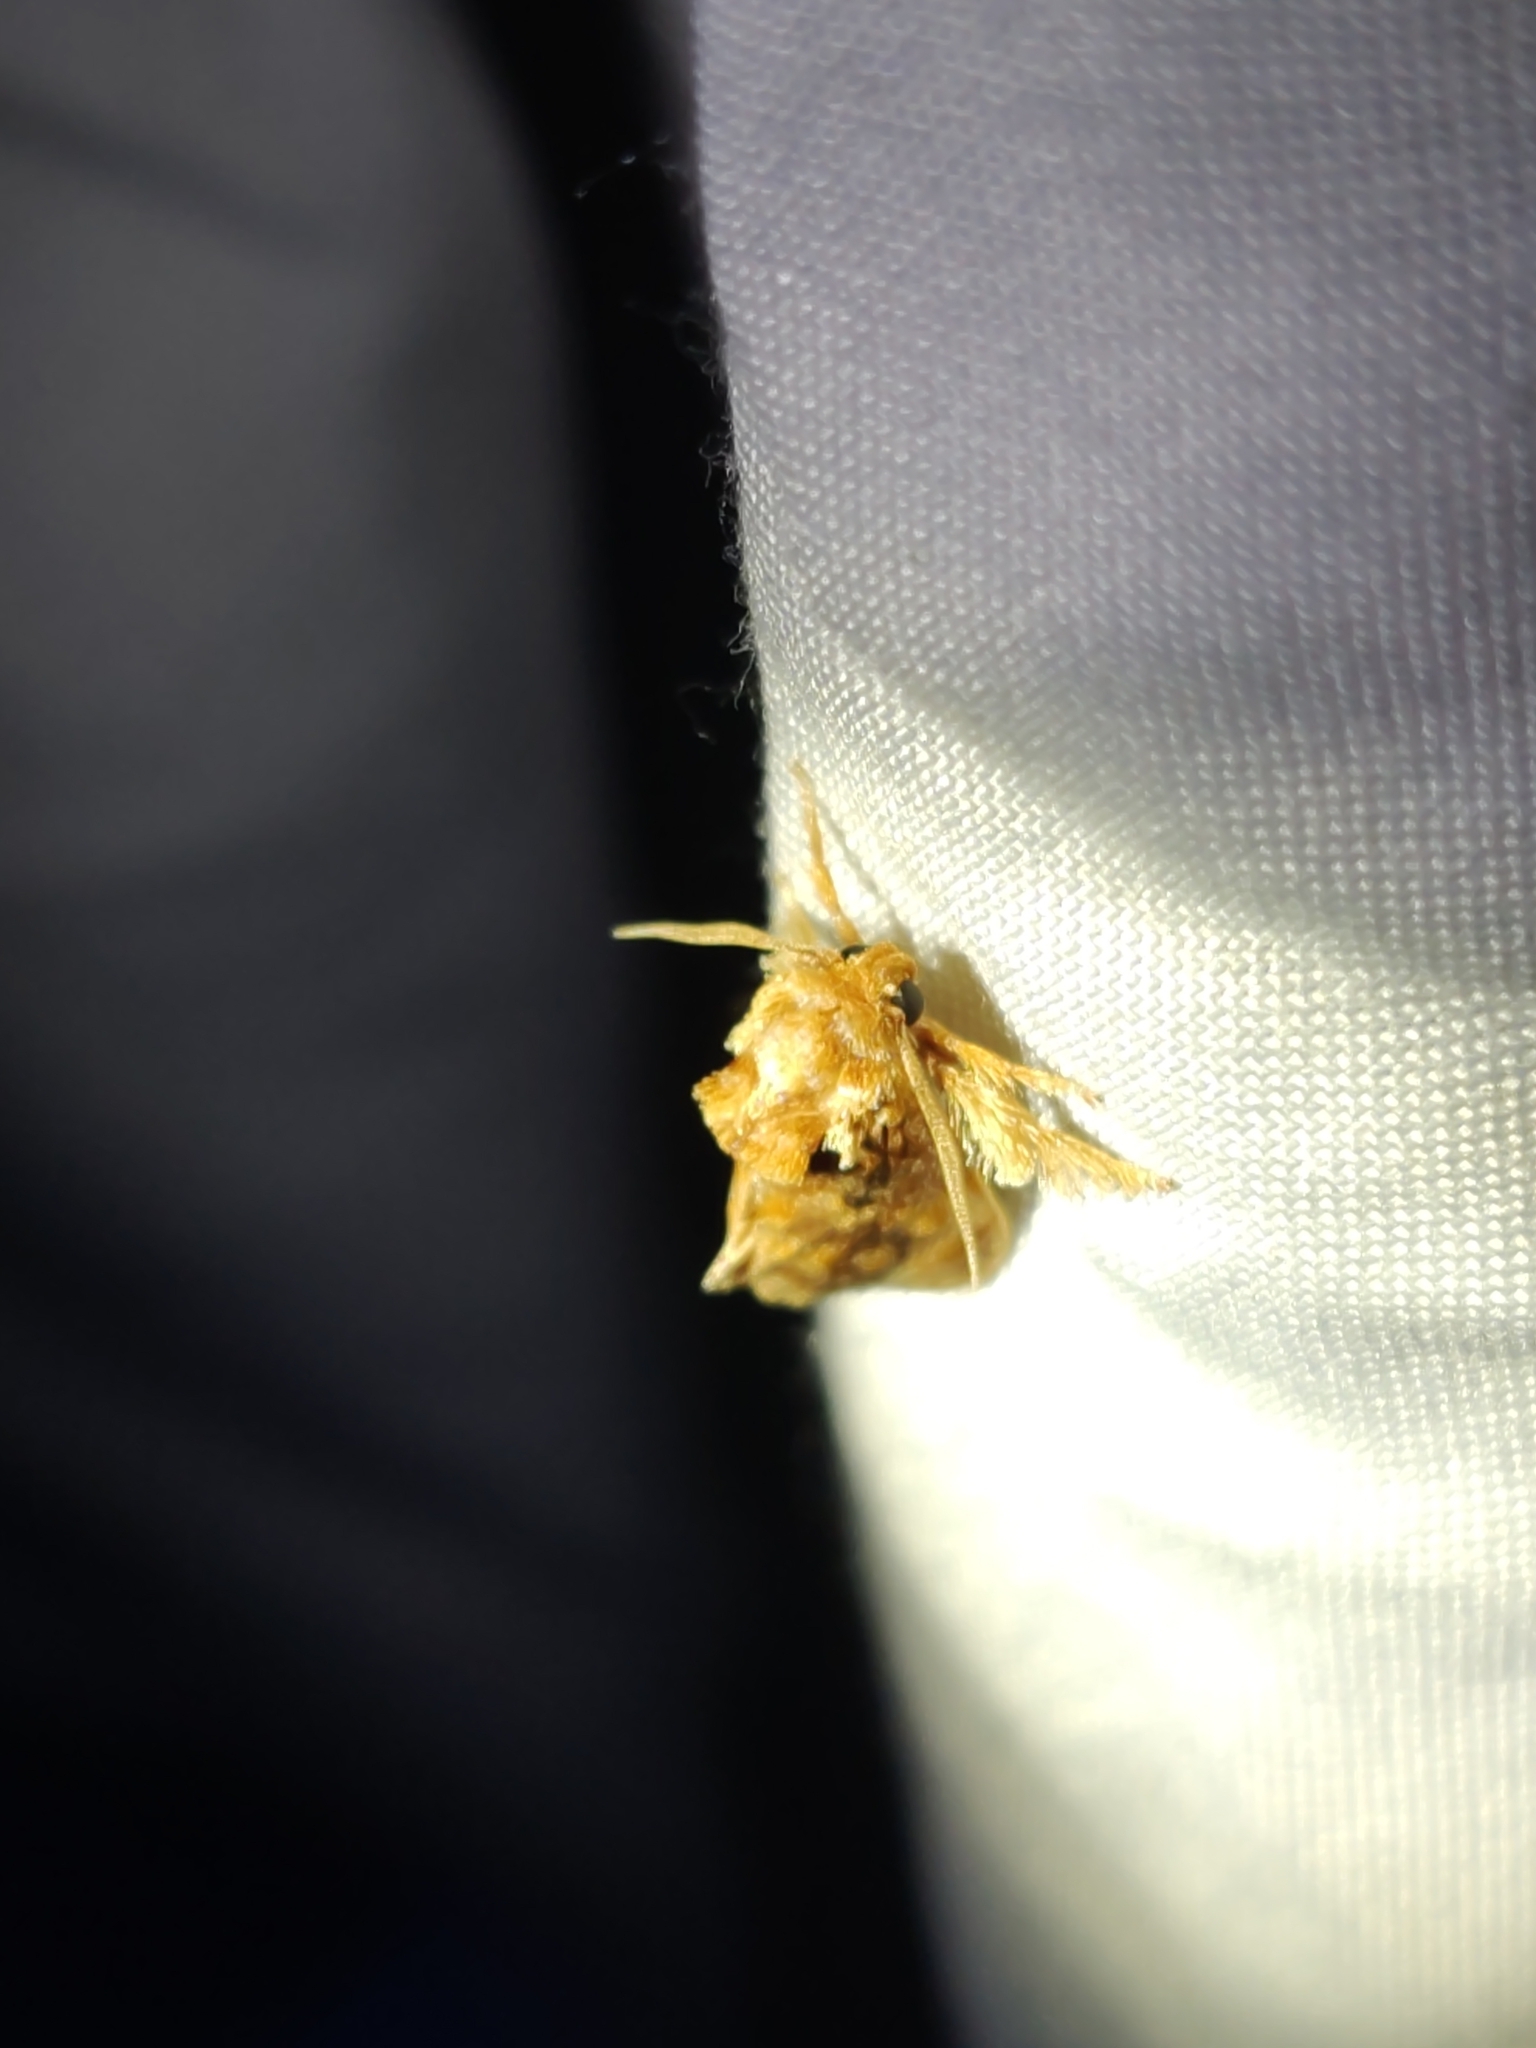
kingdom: Animalia
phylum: Arthropoda
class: Insecta
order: Lepidoptera
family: Limacodidae
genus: Isochaetes
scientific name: Isochaetes beutenmuelleri
